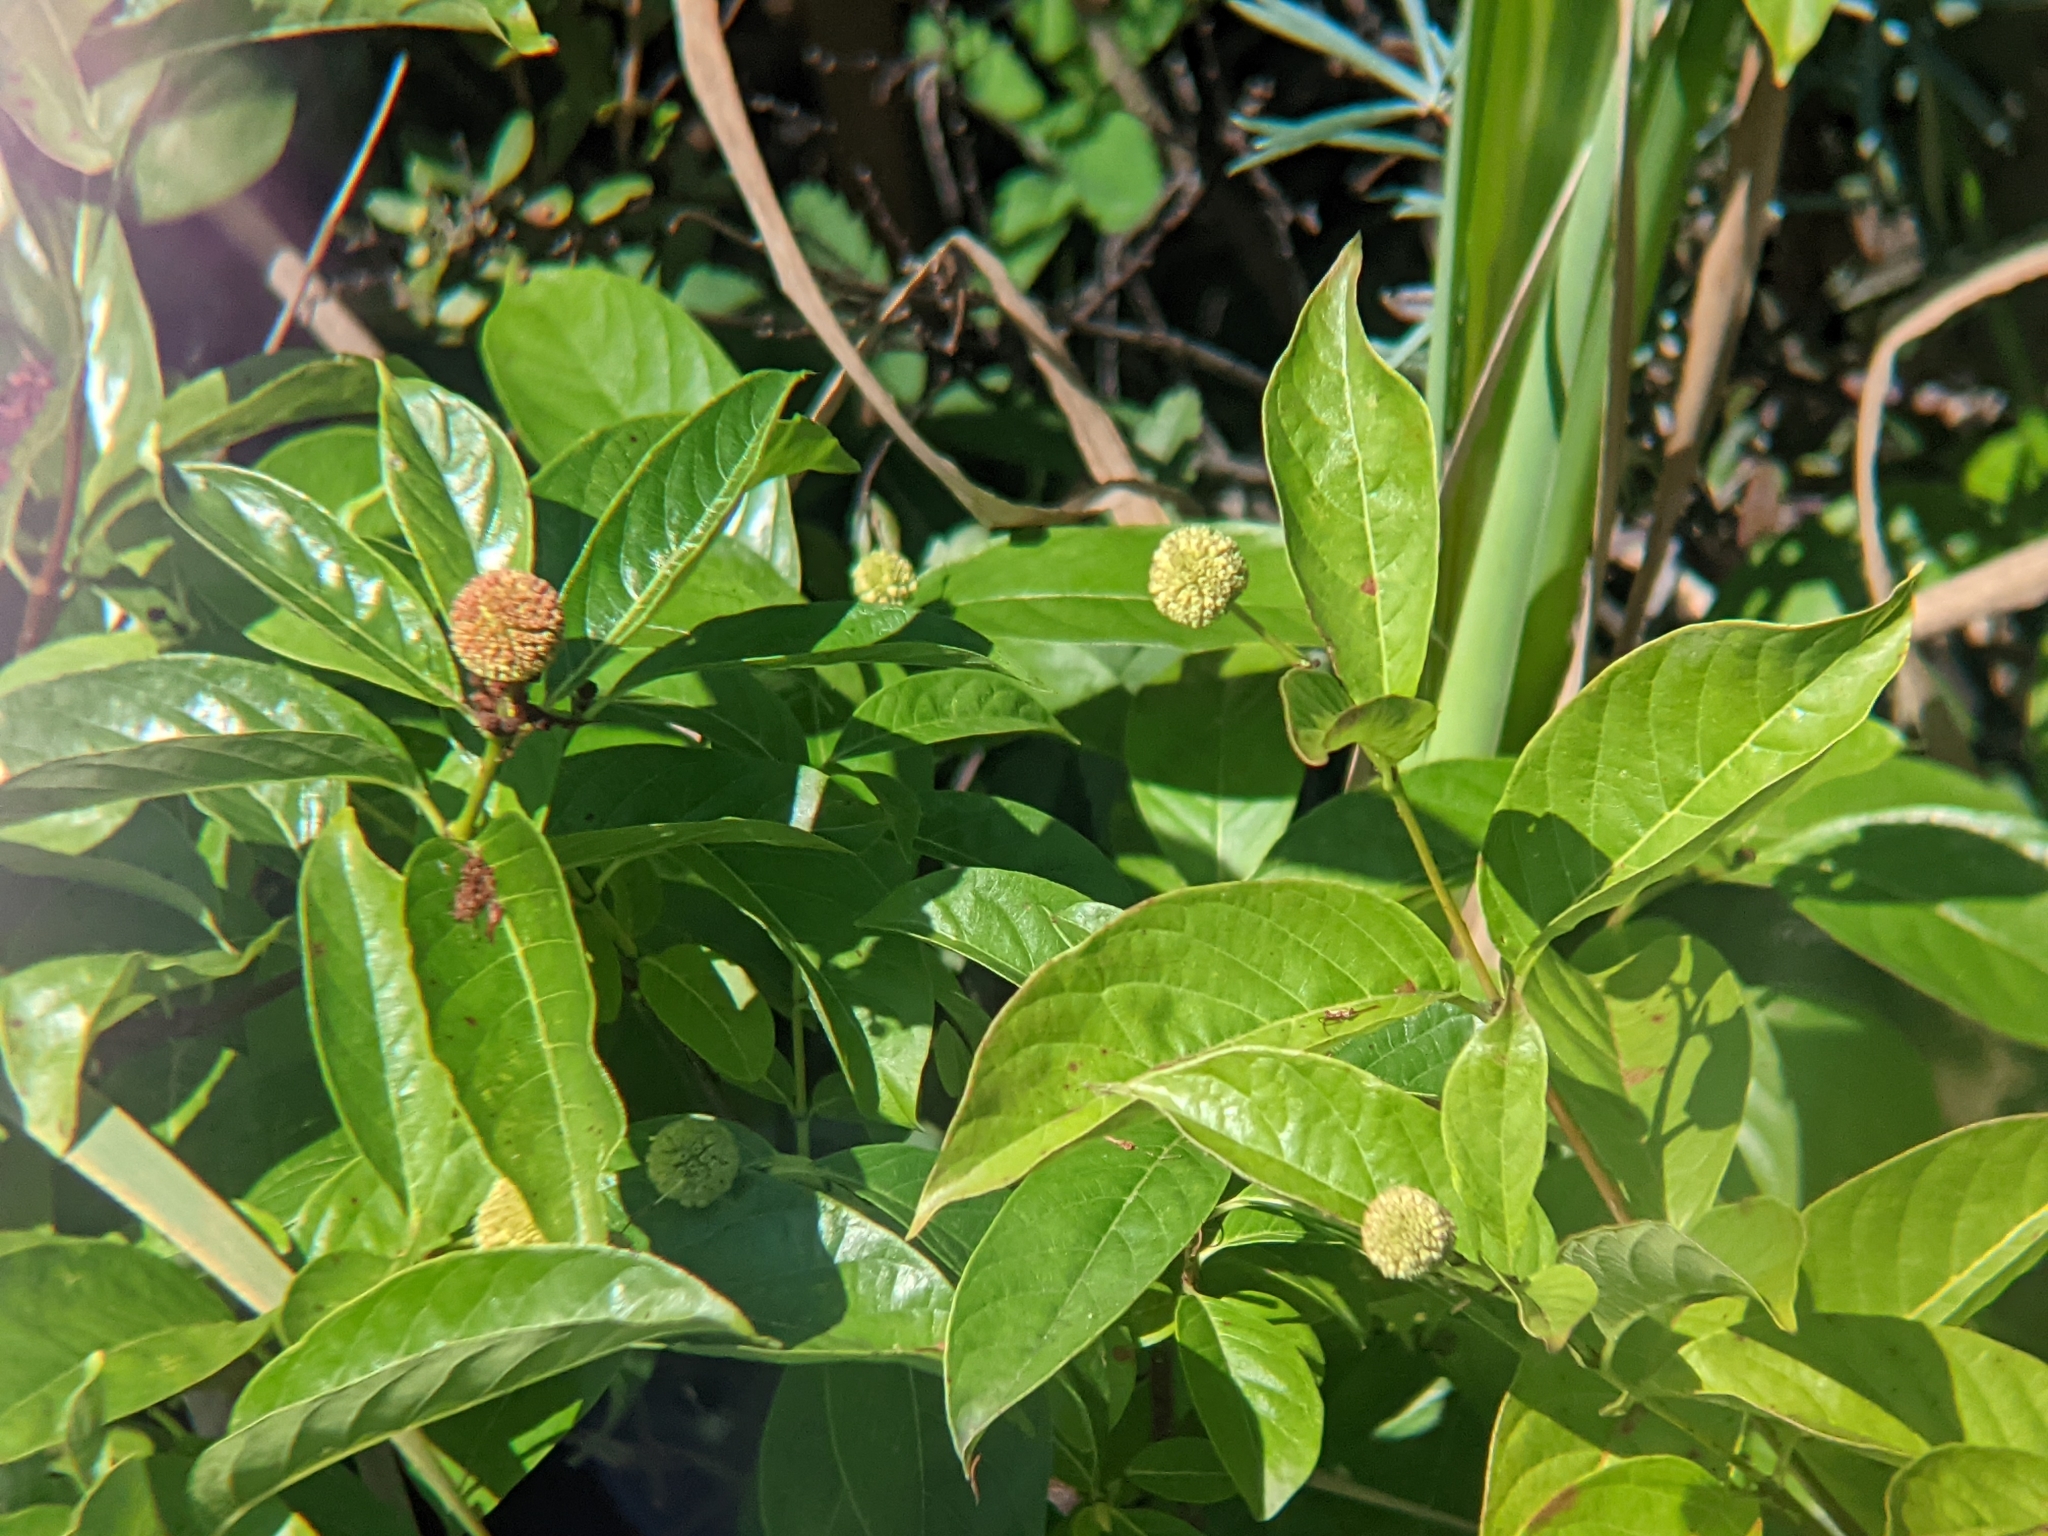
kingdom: Plantae
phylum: Tracheophyta
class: Magnoliopsida
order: Gentianales
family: Rubiaceae
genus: Cephalanthus
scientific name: Cephalanthus occidentalis
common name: Button-willow
